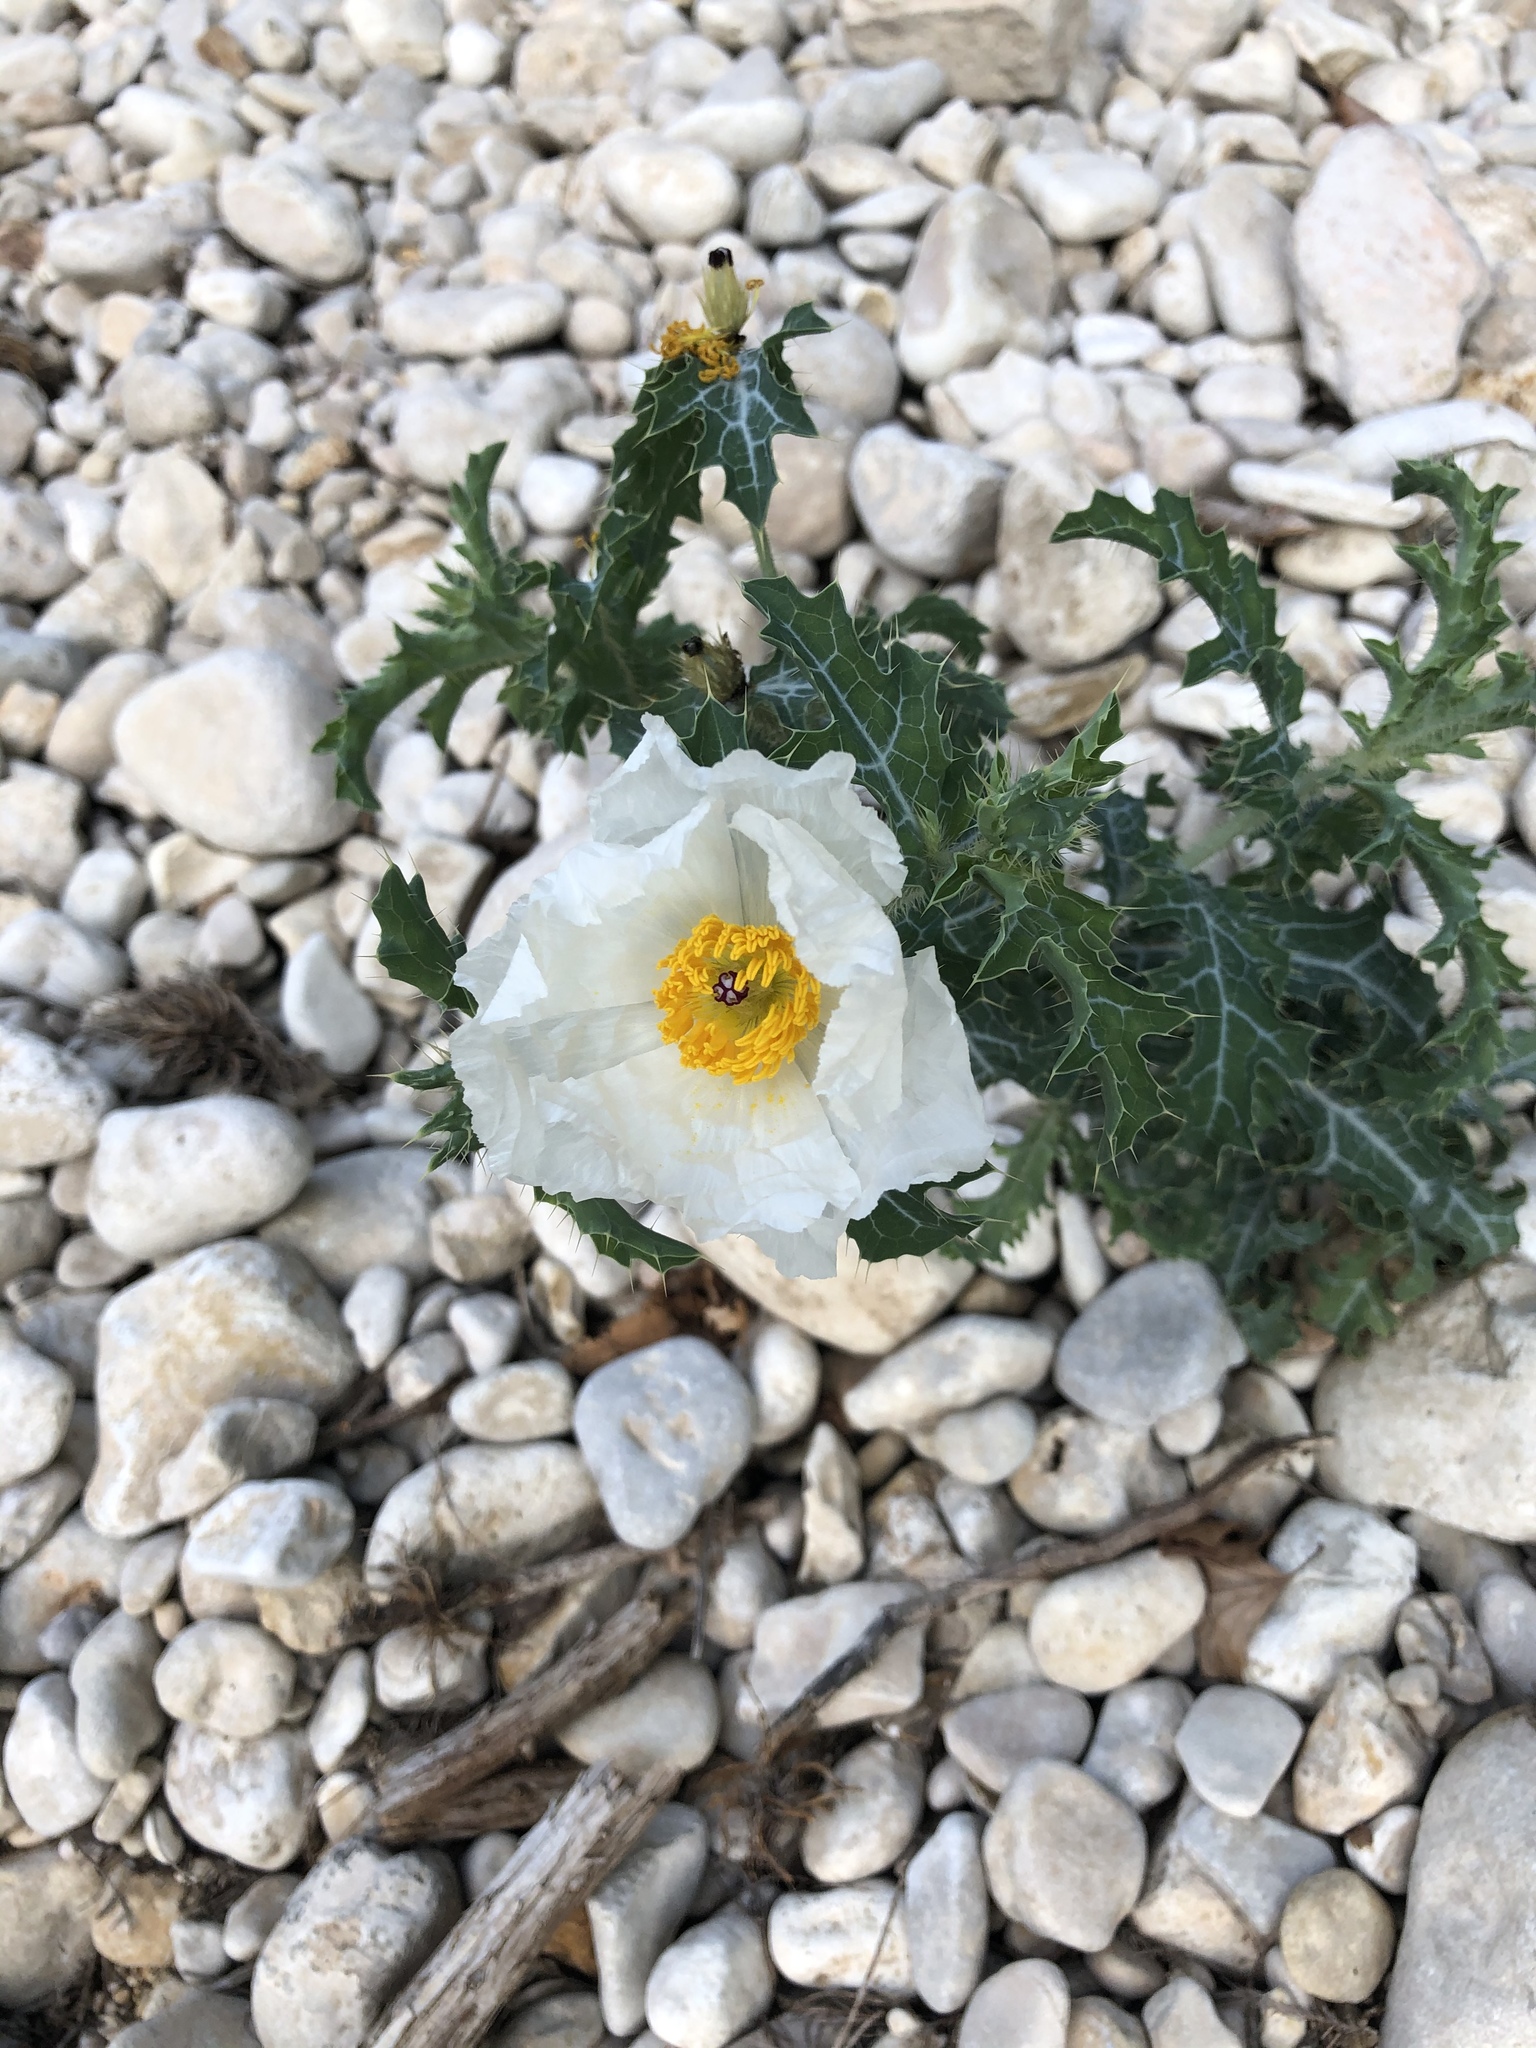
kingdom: Plantae
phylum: Tracheophyta
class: Magnoliopsida
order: Ranunculales
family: Papaveraceae
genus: Argemone
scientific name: Argemone albiflora
